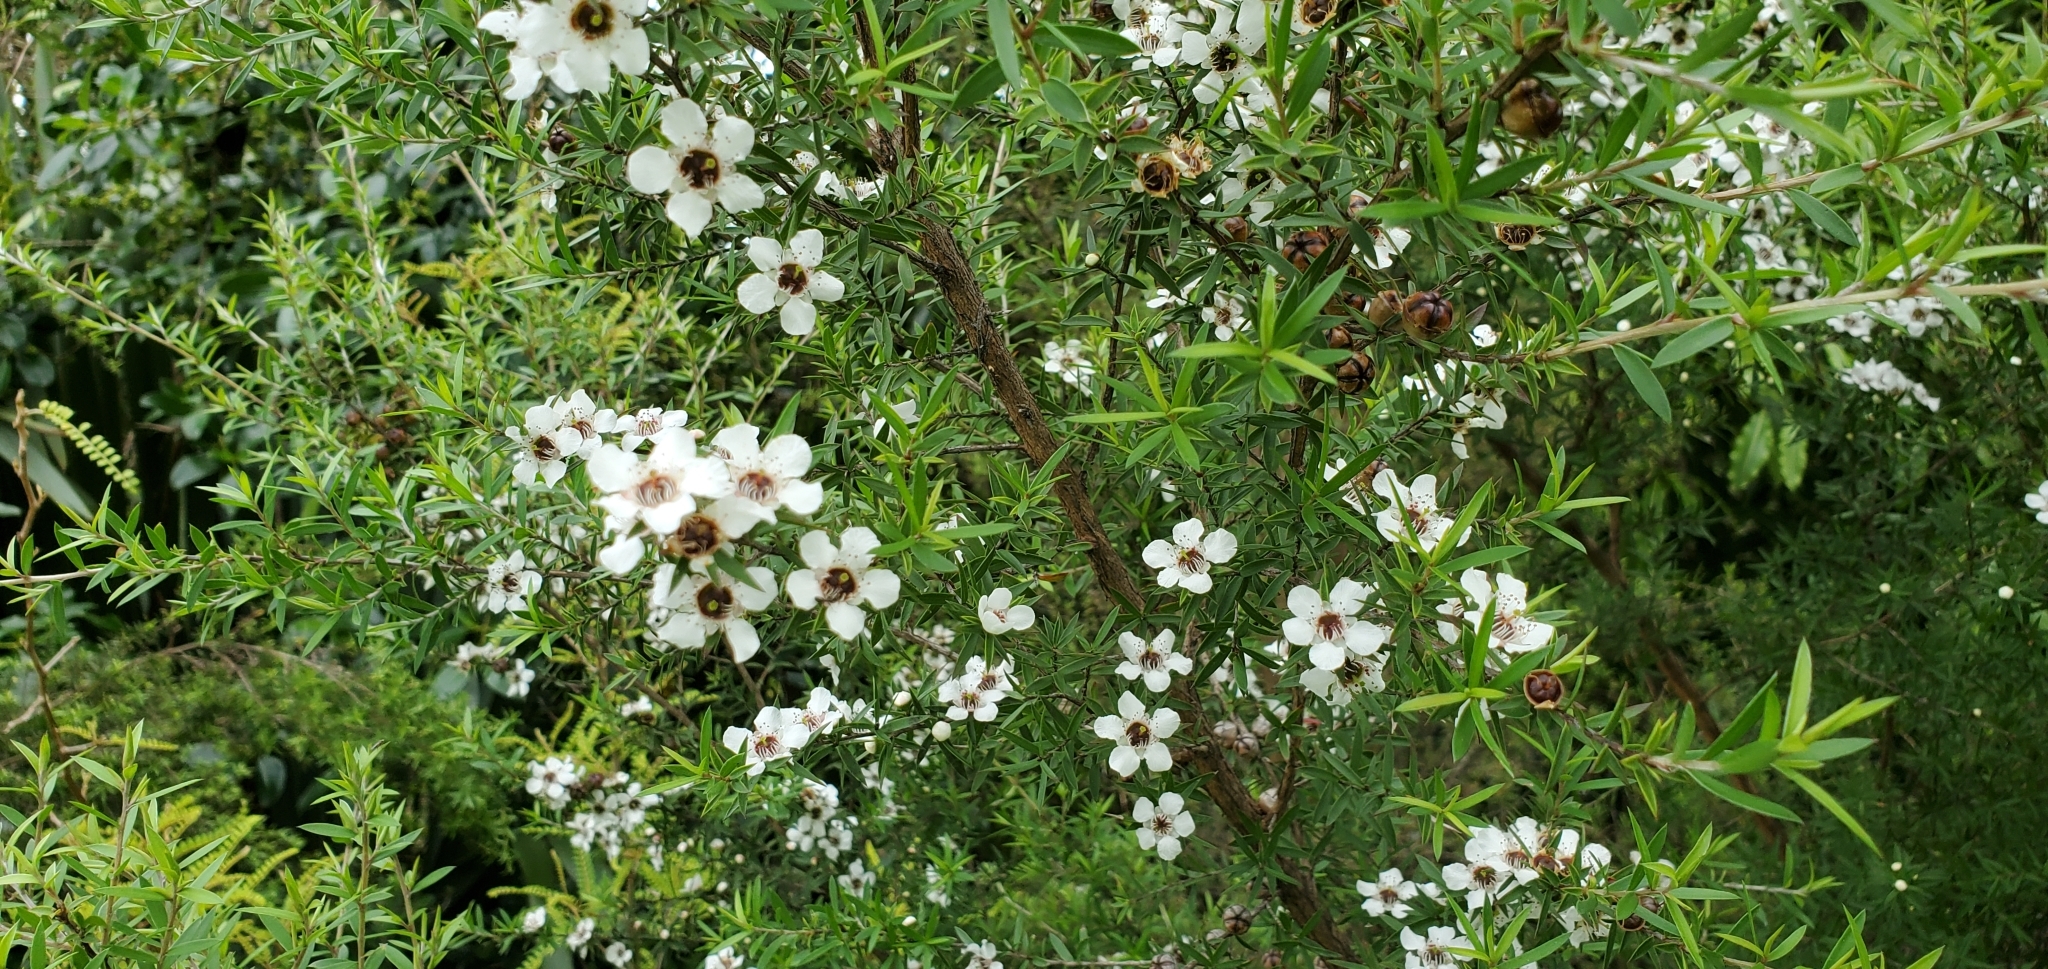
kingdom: Plantae
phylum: Tracheophyta
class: Magnoliopsida
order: Myrtales
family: Myrtaceae
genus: Leptospermum
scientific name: Leptospermum scoparium
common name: Broom tea-tree
